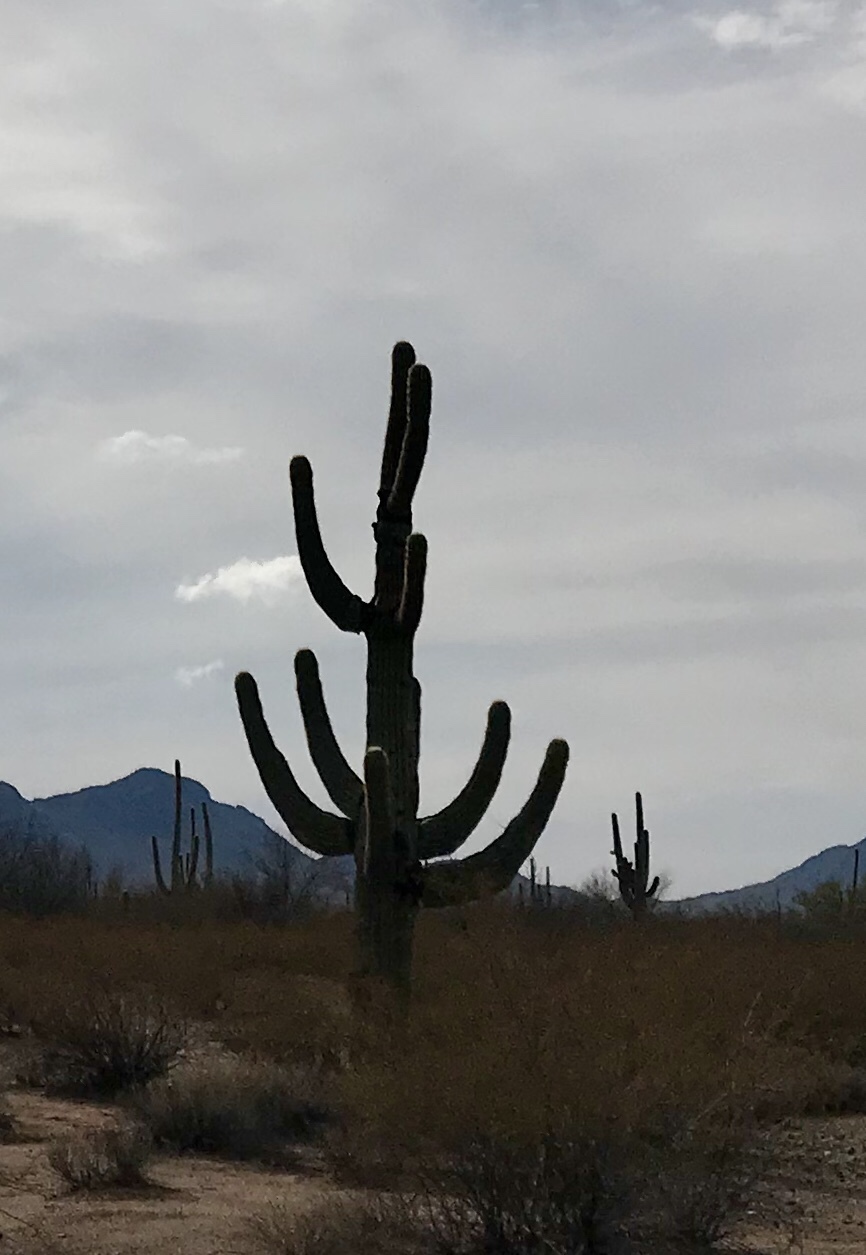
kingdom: Plantae
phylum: Tracheophyta
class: Magnoliopsida
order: Caryophyllales
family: Cactaceae
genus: Carnegiea
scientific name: Carnegiea gigantea
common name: Saguaro
